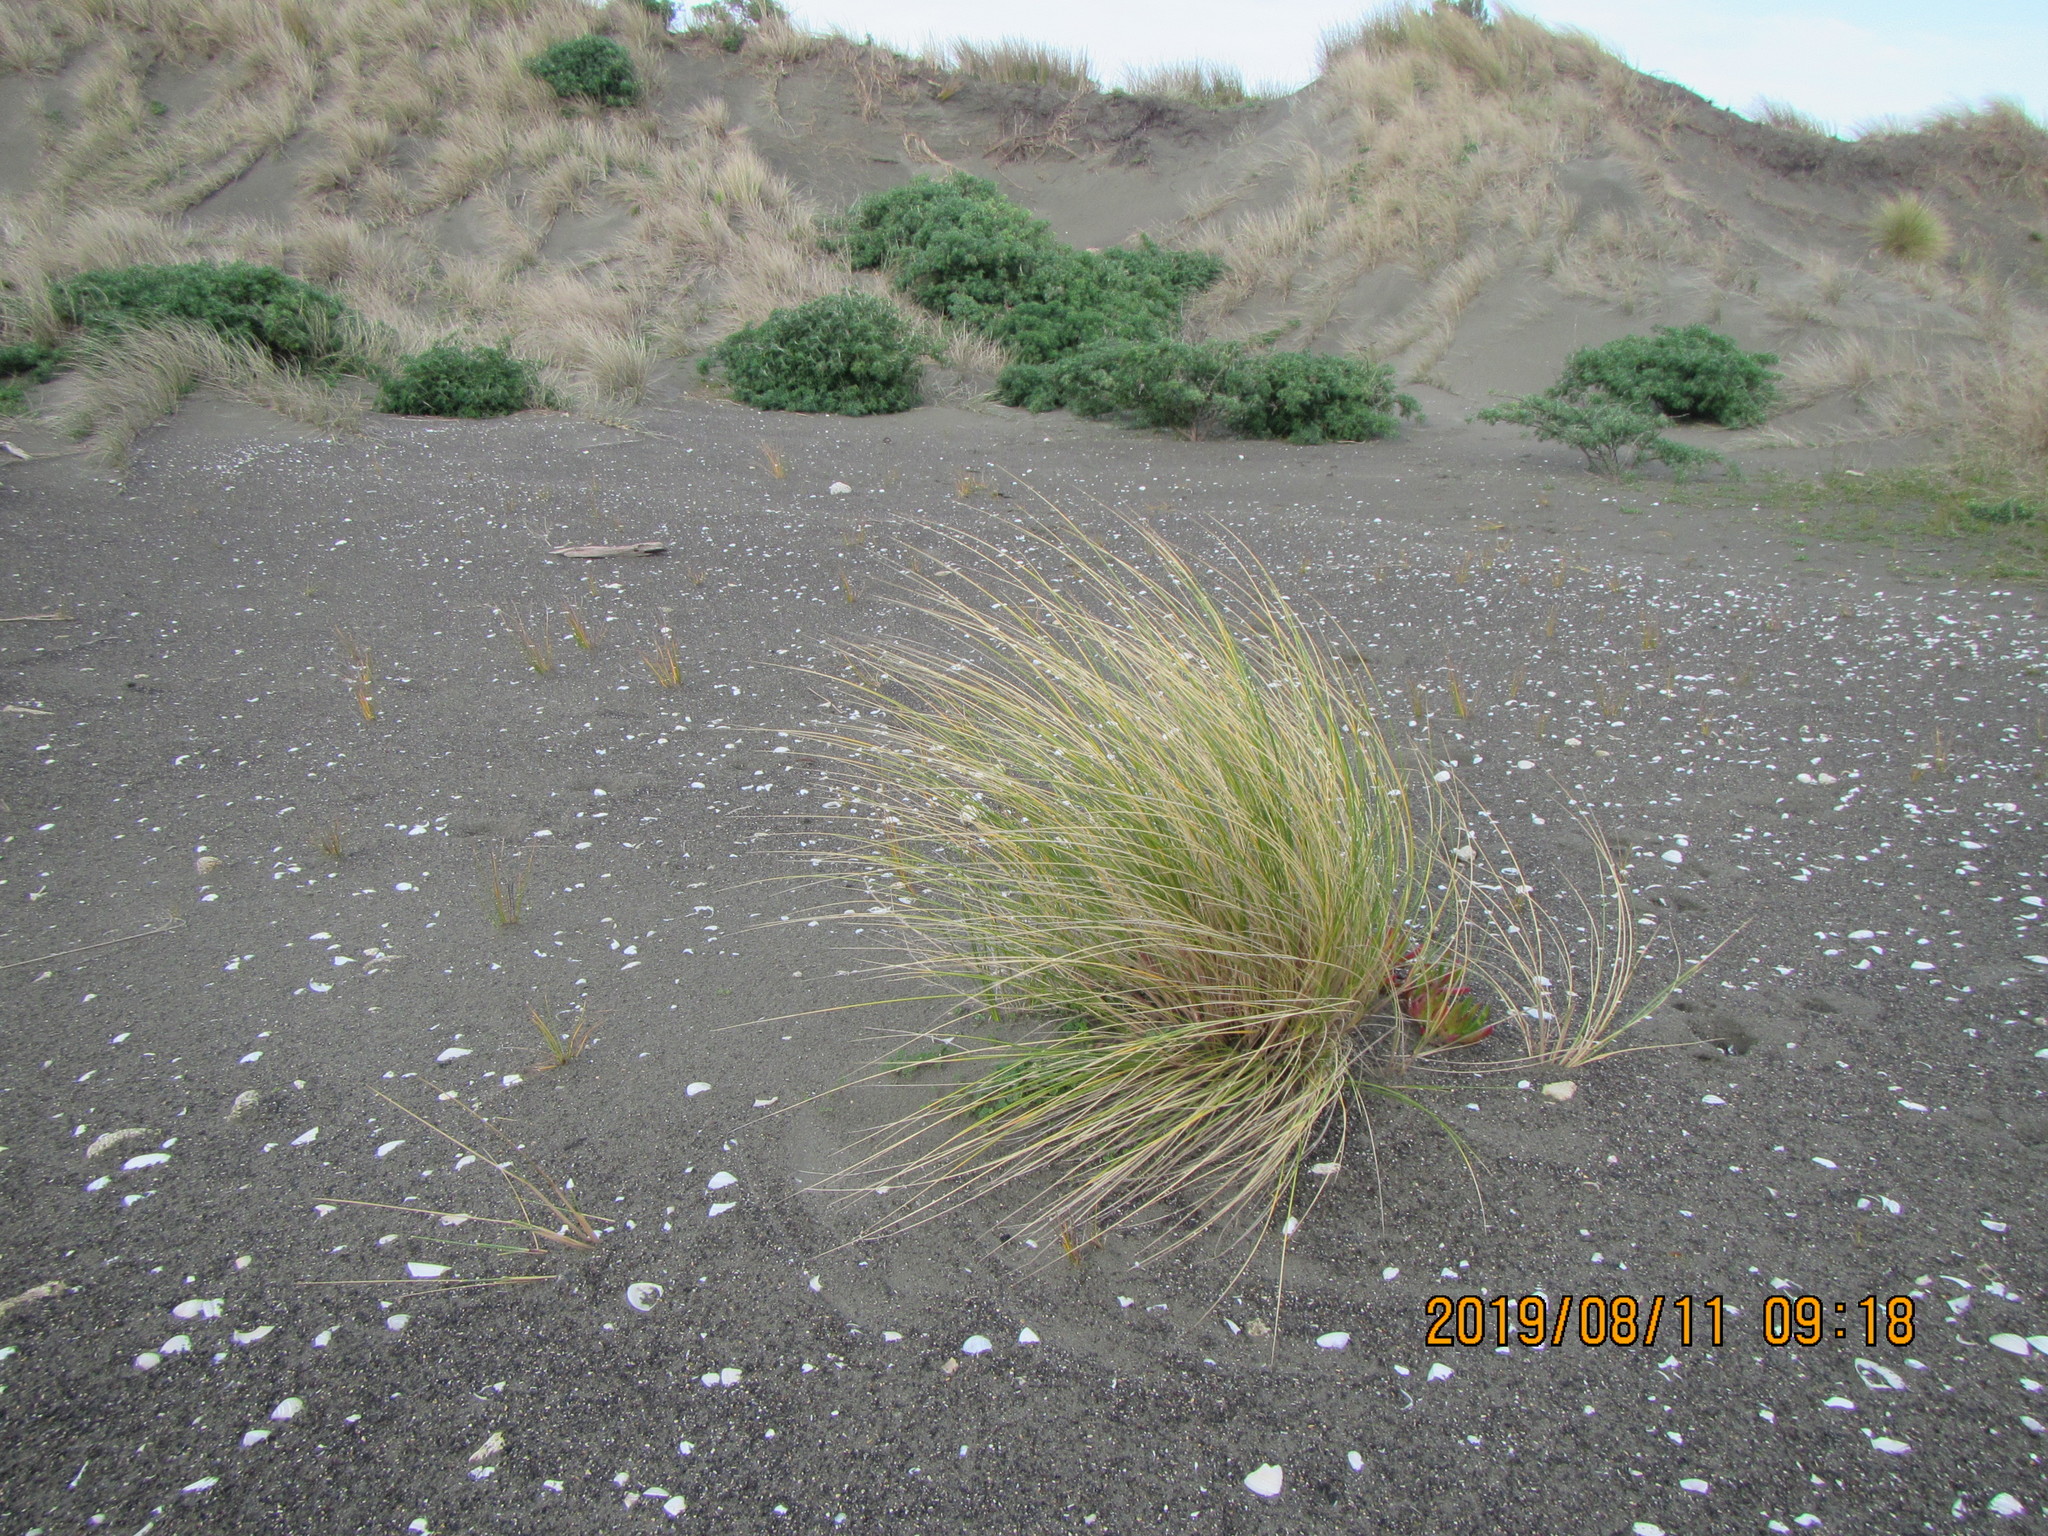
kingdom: Plantae
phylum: Tracheophyta
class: Liliopsida
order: Poales
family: Poaceae
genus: Calamagrostis
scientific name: Calamagrostis arenaria
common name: European beachgrass
